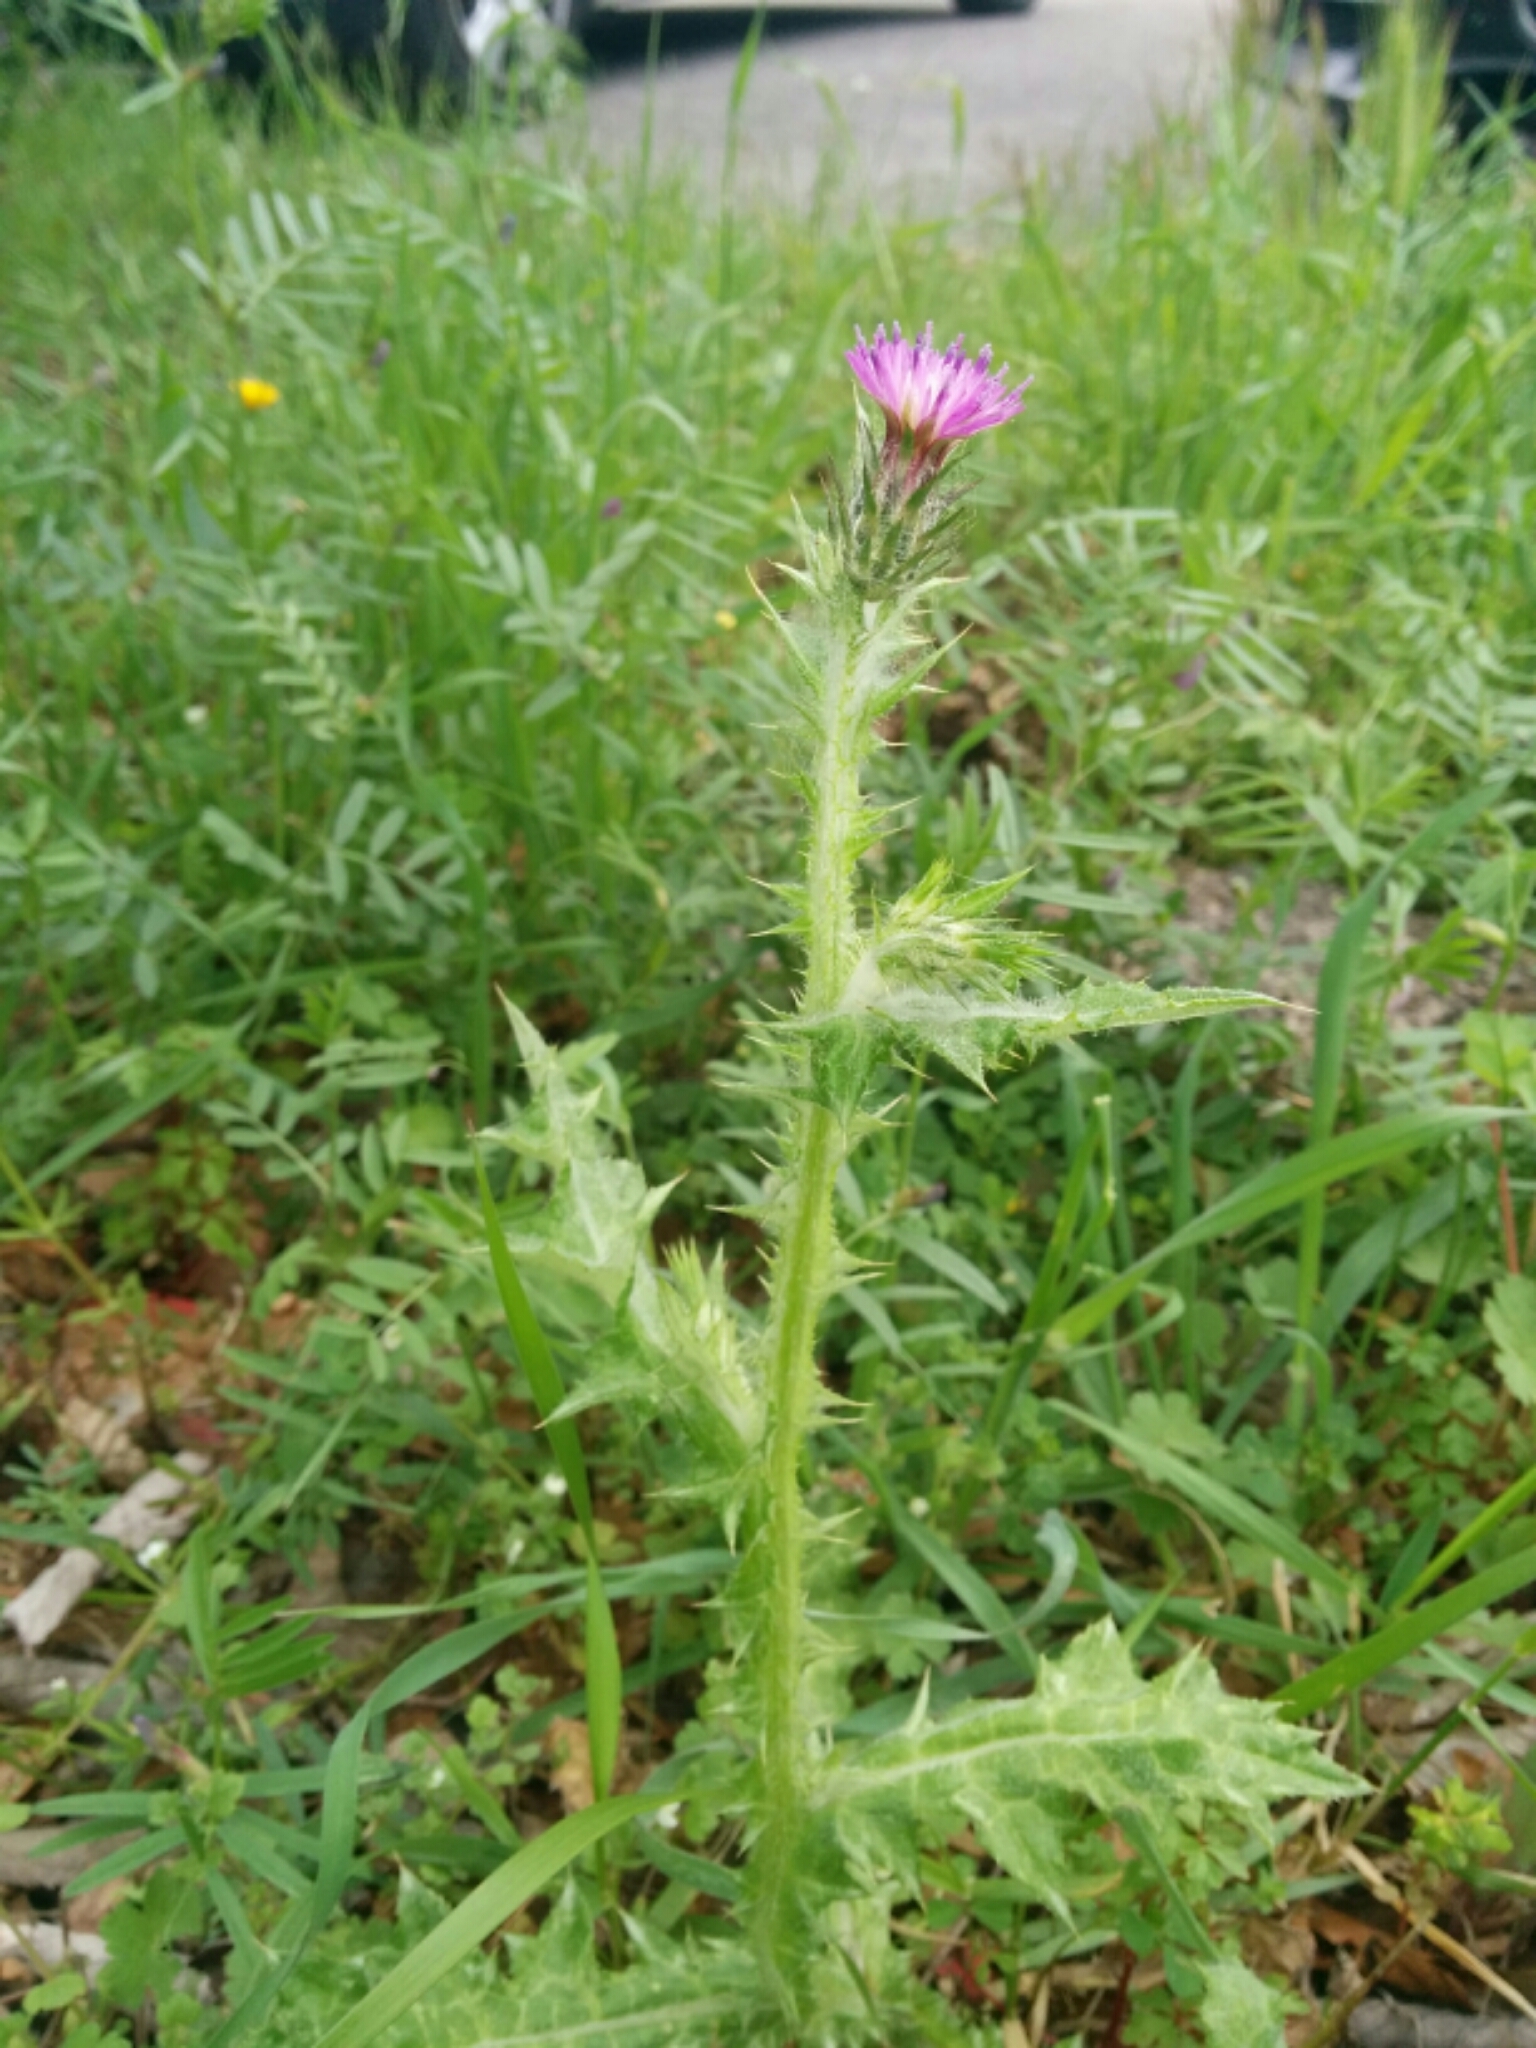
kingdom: Plantae
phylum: Tracheophyta
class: Magnoliopsida
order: Asterales
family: Asteraceae
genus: Carduus
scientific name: Carduus pycnocephalus
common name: Plymouth thistle
